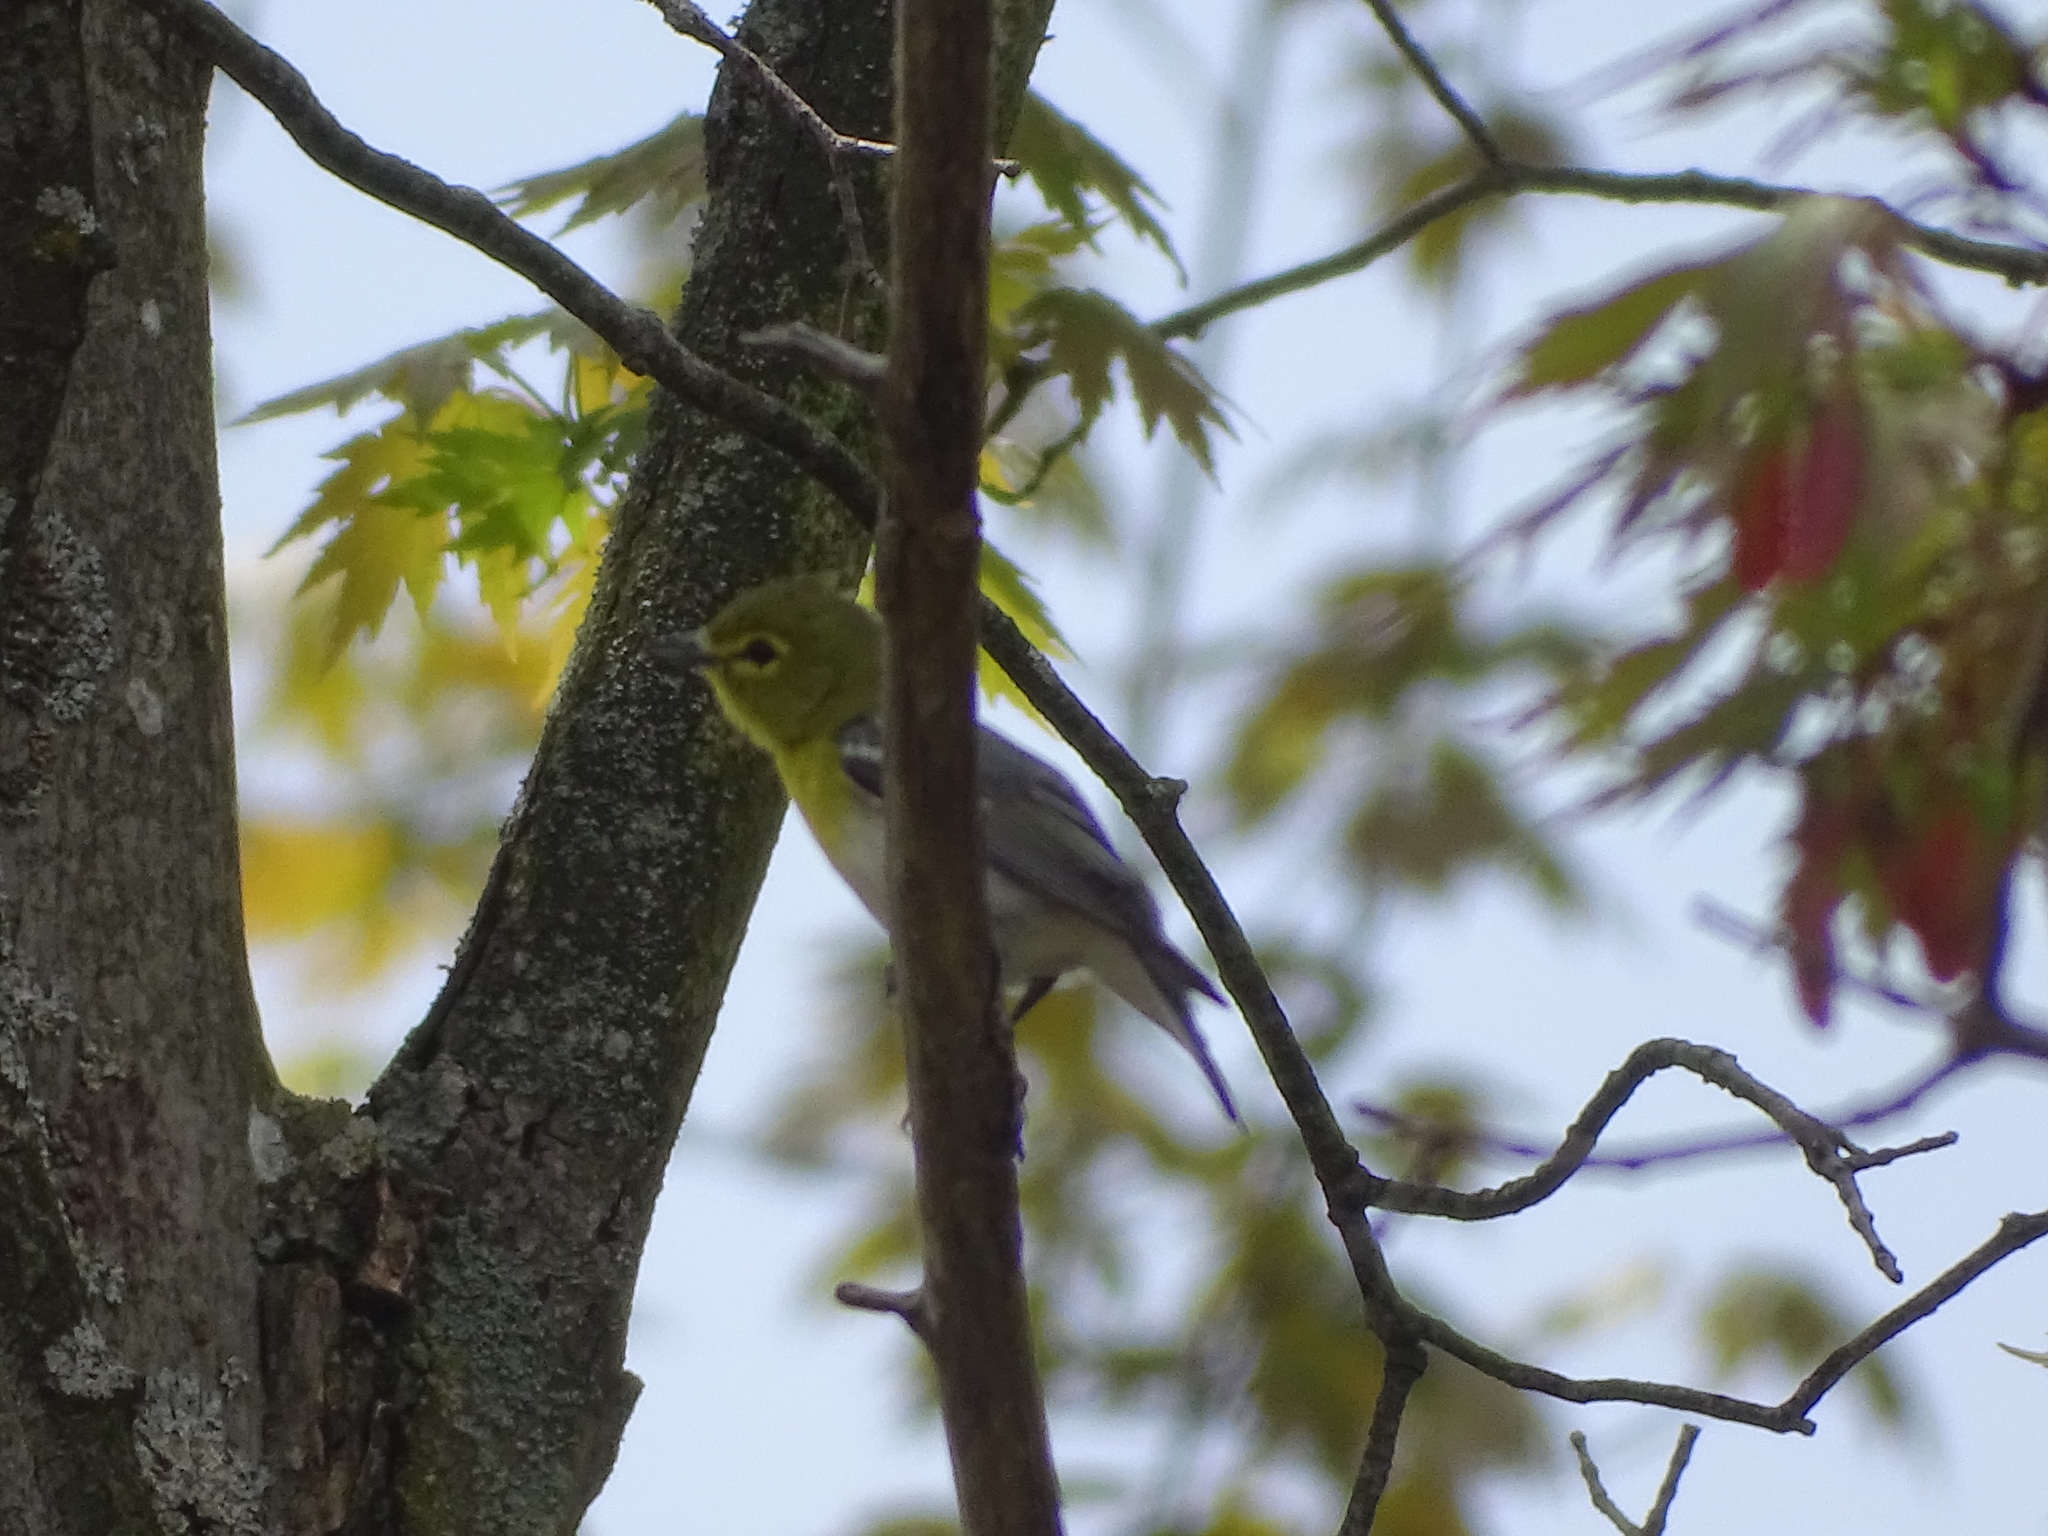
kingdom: Animalia
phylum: Chordata
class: Aves
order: Passeriformes
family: Vireonidae
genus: Vireo
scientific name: Vireo flavifrons
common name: Yellow-throated vireo
